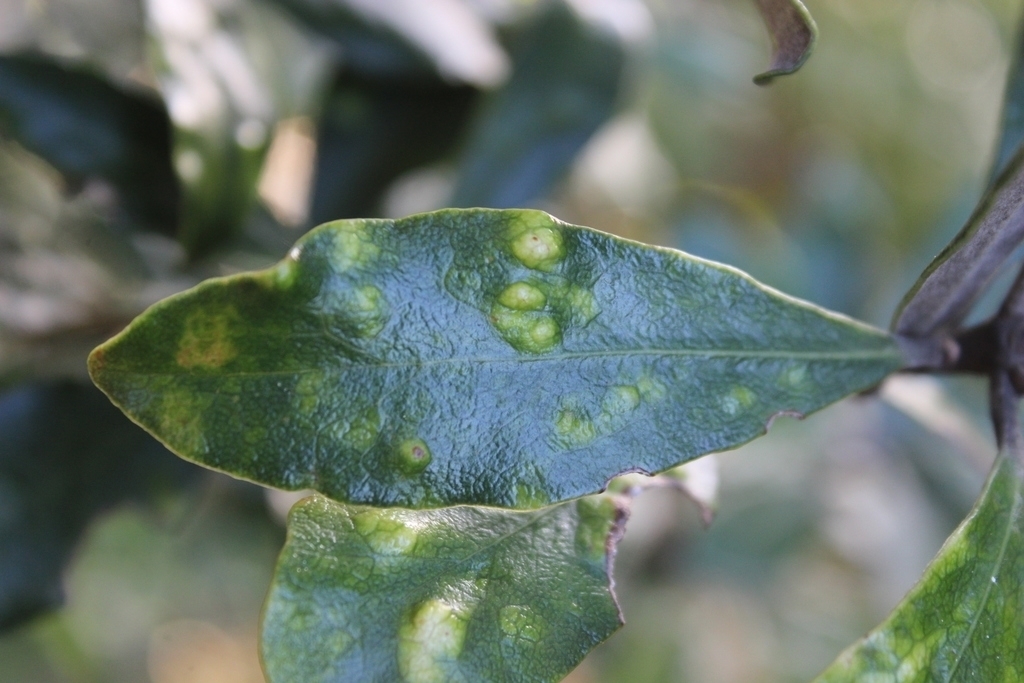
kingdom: Plantae
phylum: Tracheophyta
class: Magnoliopsida
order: Apiales
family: Pittosporaceae
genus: Pittosporum
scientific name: Pittosporum crassifolium
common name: Karo
